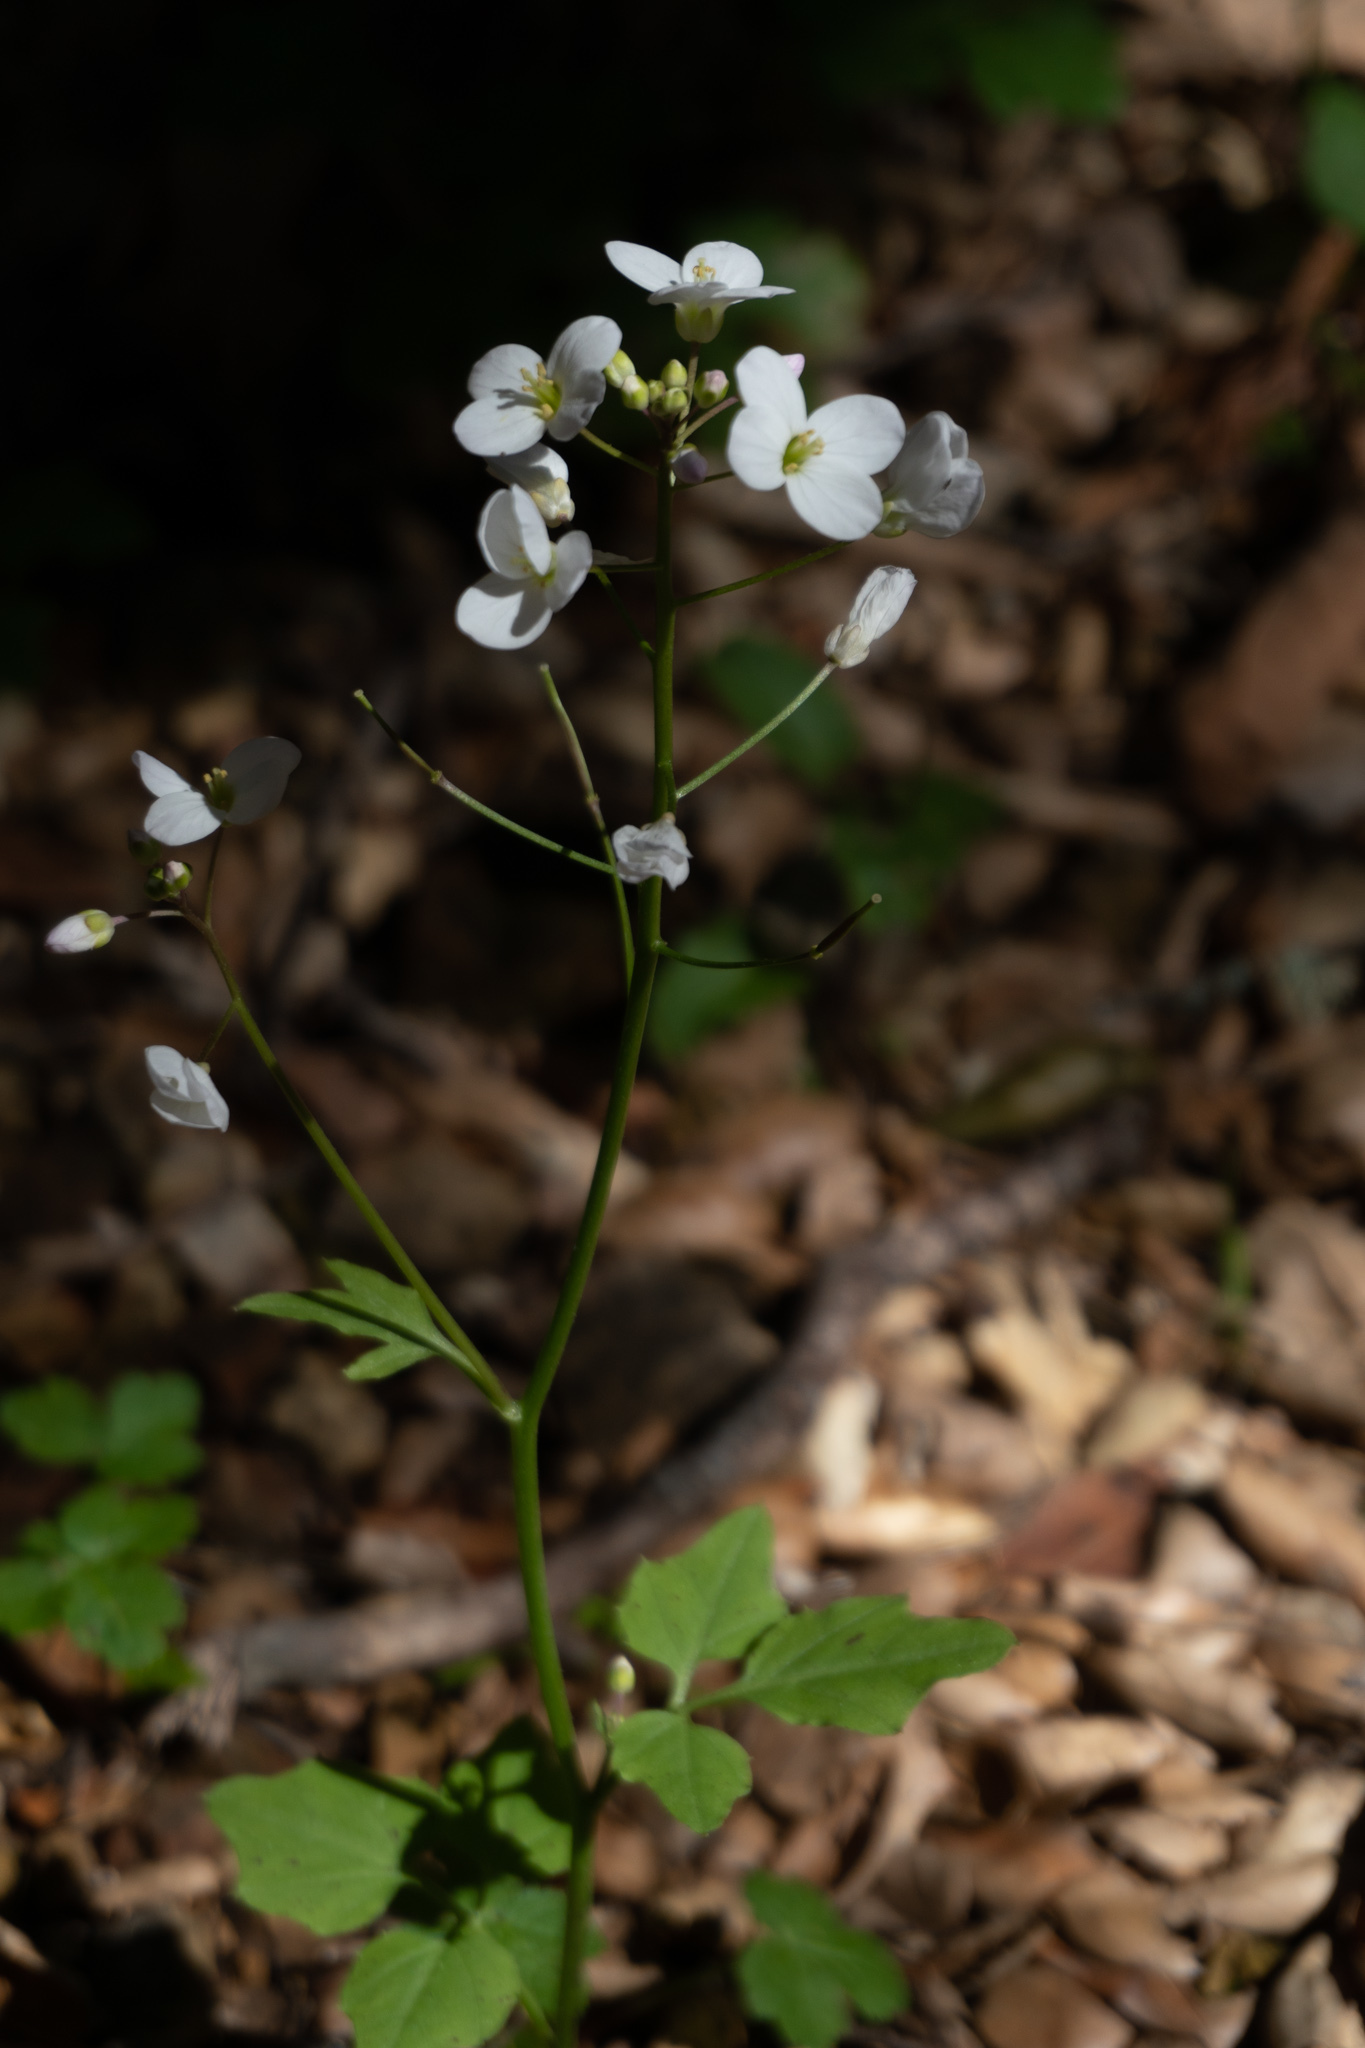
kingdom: Plantae
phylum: Tracheophyta
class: Magnoliopsida
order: Brassicales
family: Brassicaceae
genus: Cardamine
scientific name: Cardamine californica
